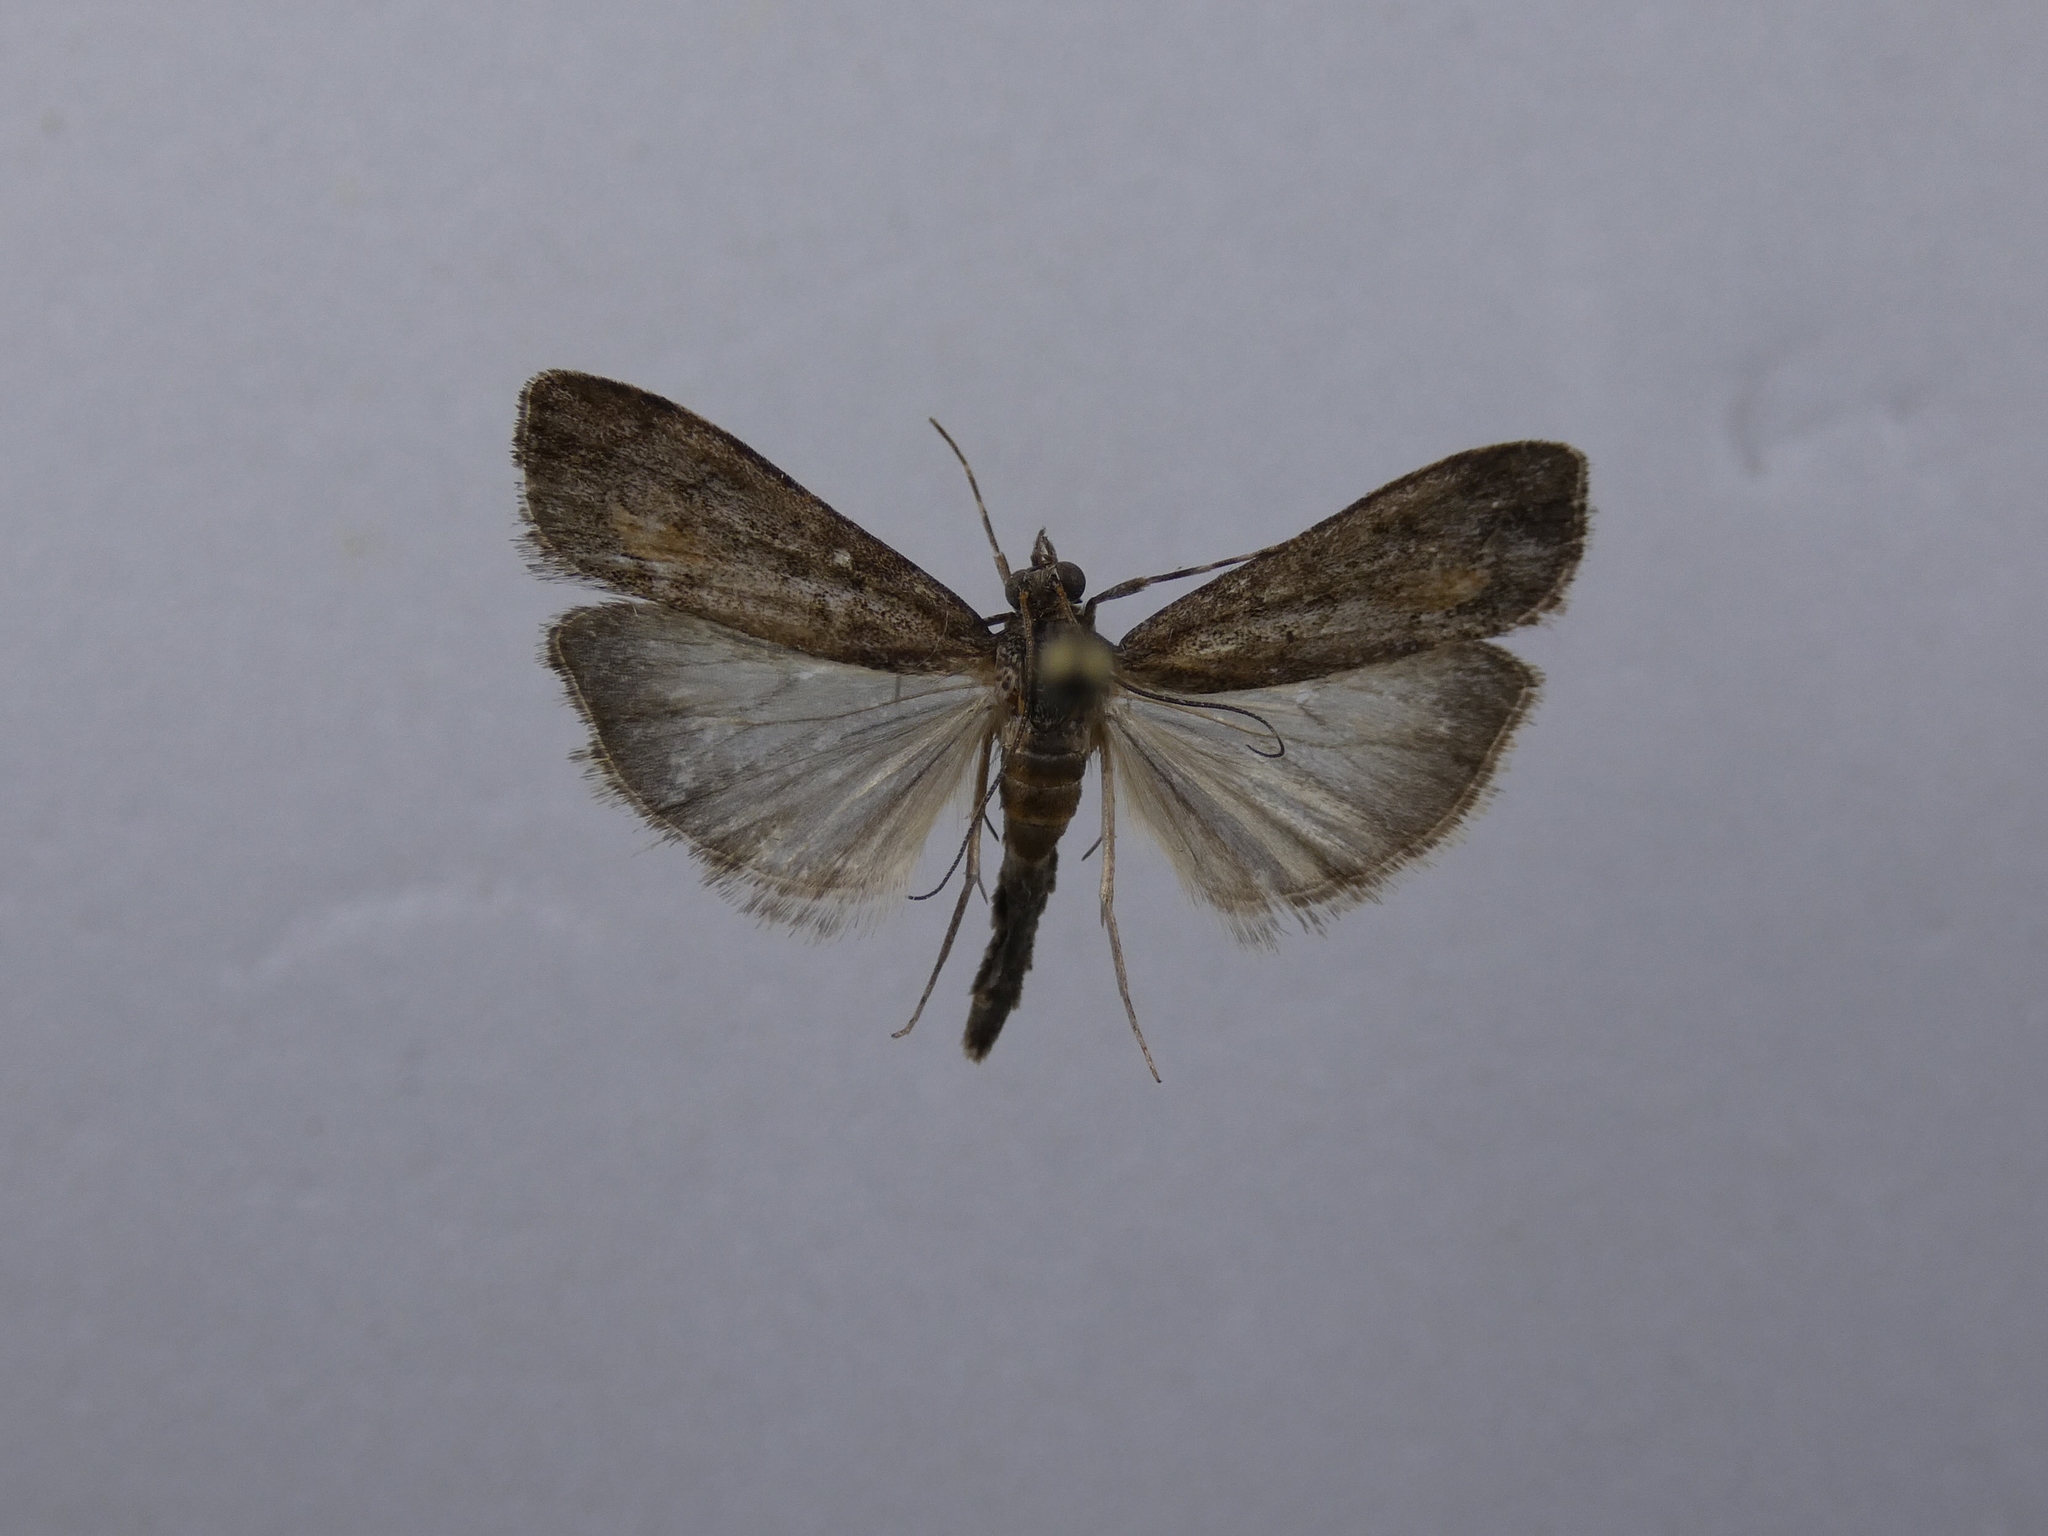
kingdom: Animalia
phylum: Arthropoda
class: Insecta
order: Lepidoptera
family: Crambidae
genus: Eudonia
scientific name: Eudonia submarginalis
